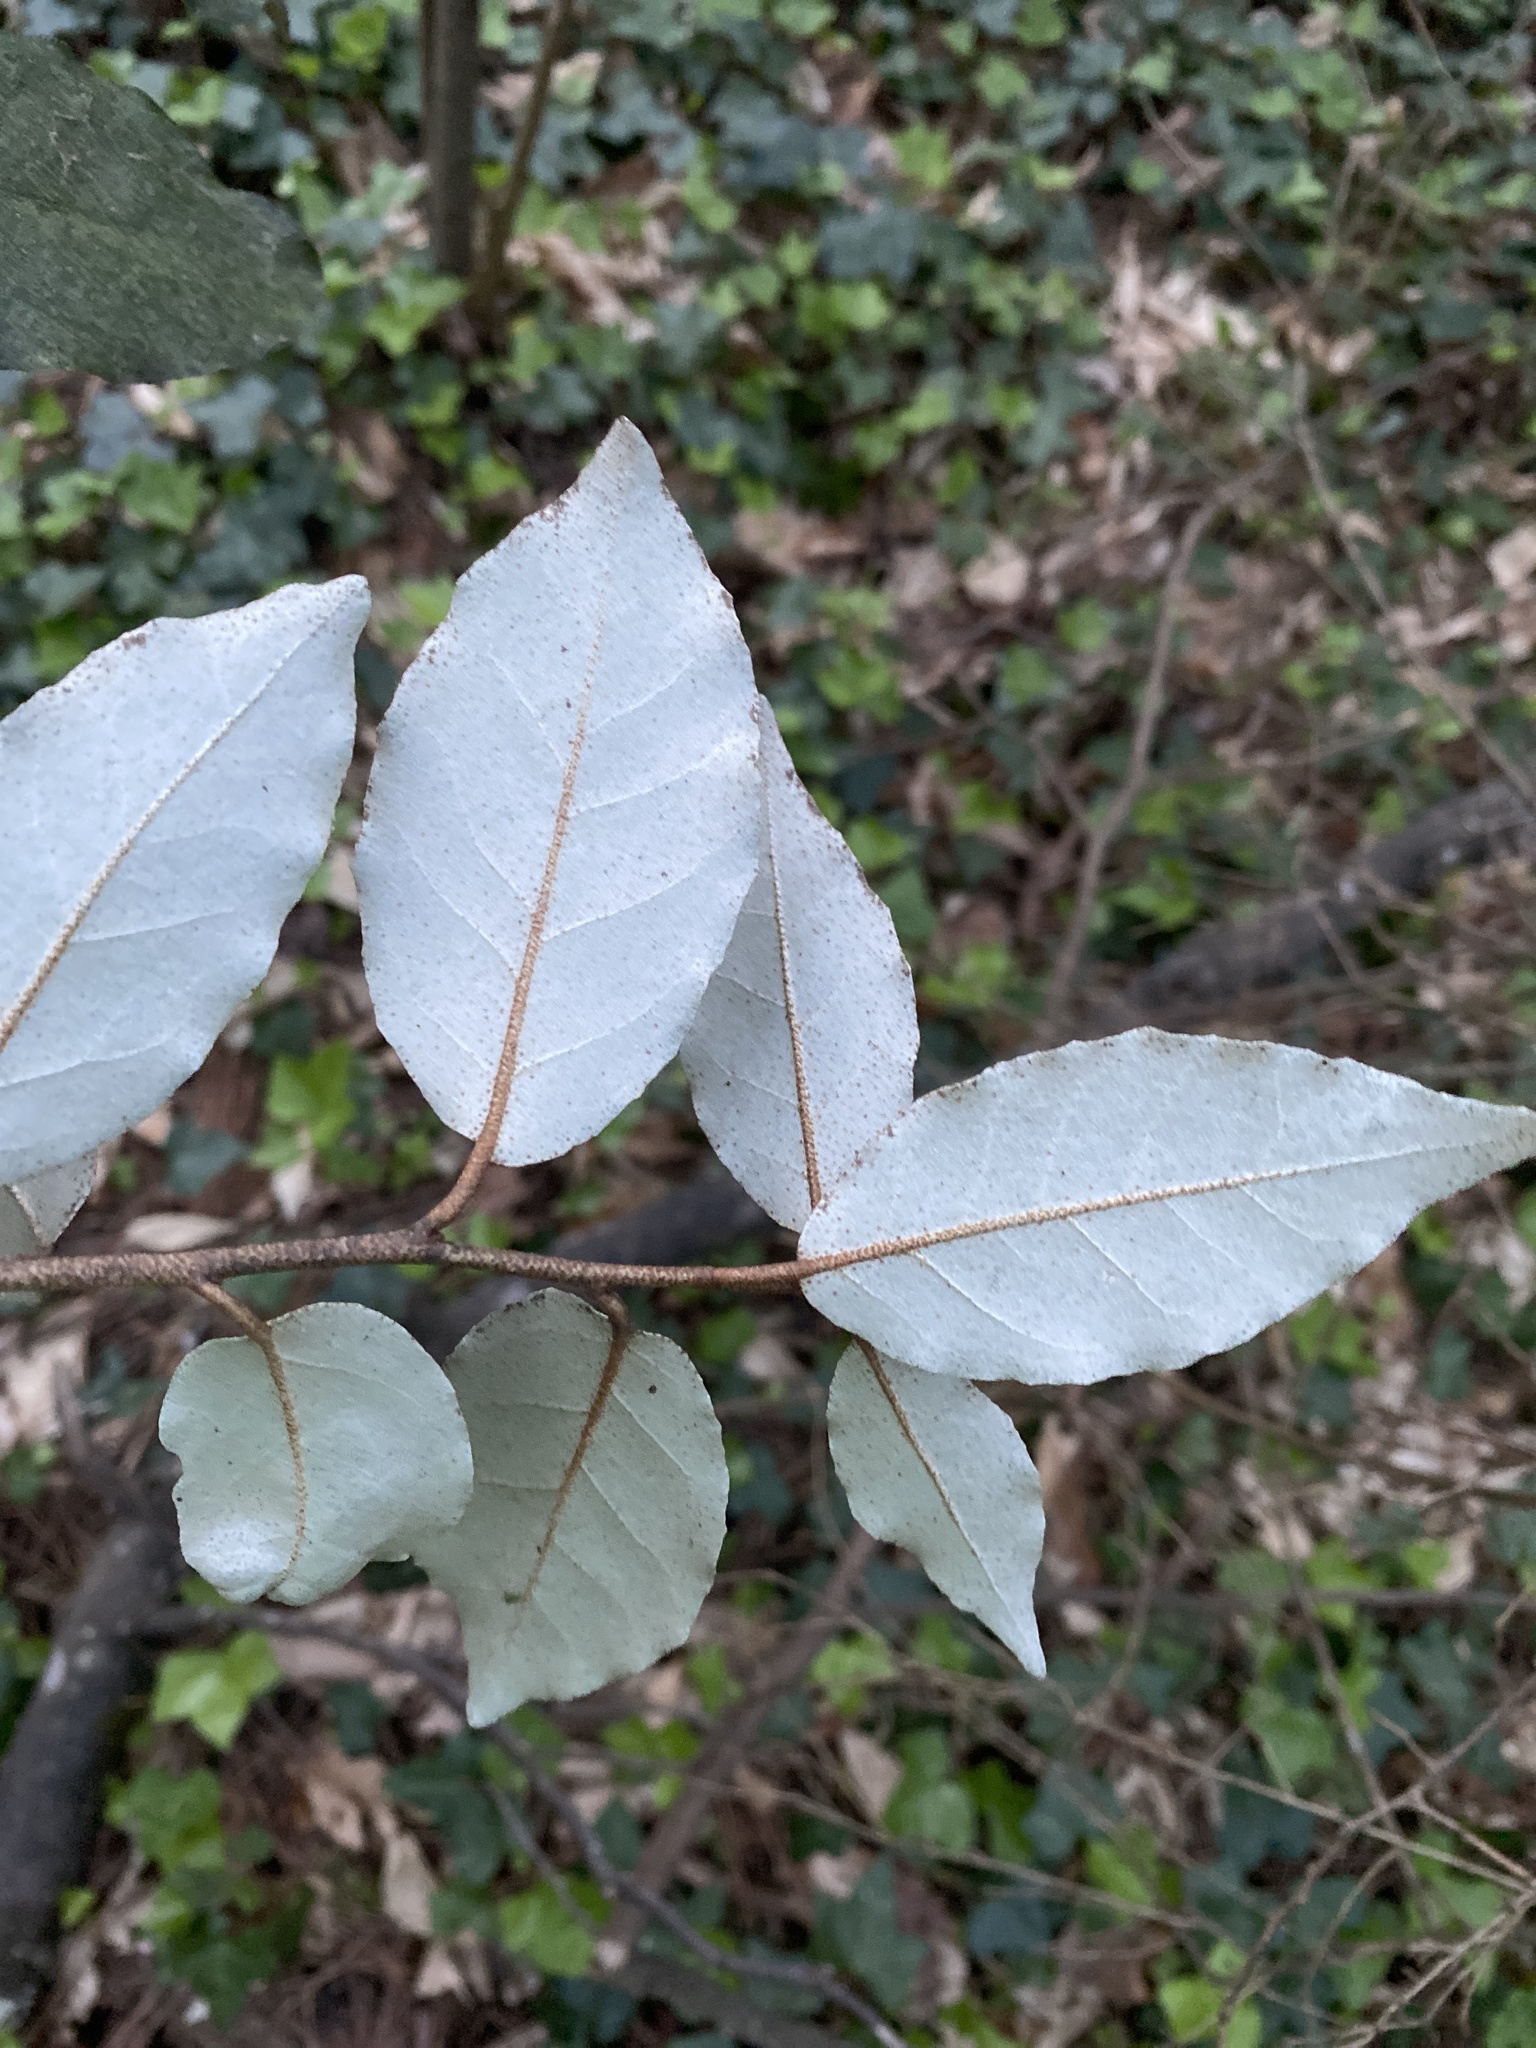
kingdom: Plantae
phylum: Tracheophyta
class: Magnoliopsida
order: Rosales
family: Elaeagnaceae
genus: Elaeagnus
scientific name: Elaeagnus pungens
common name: Spiny oleaster
